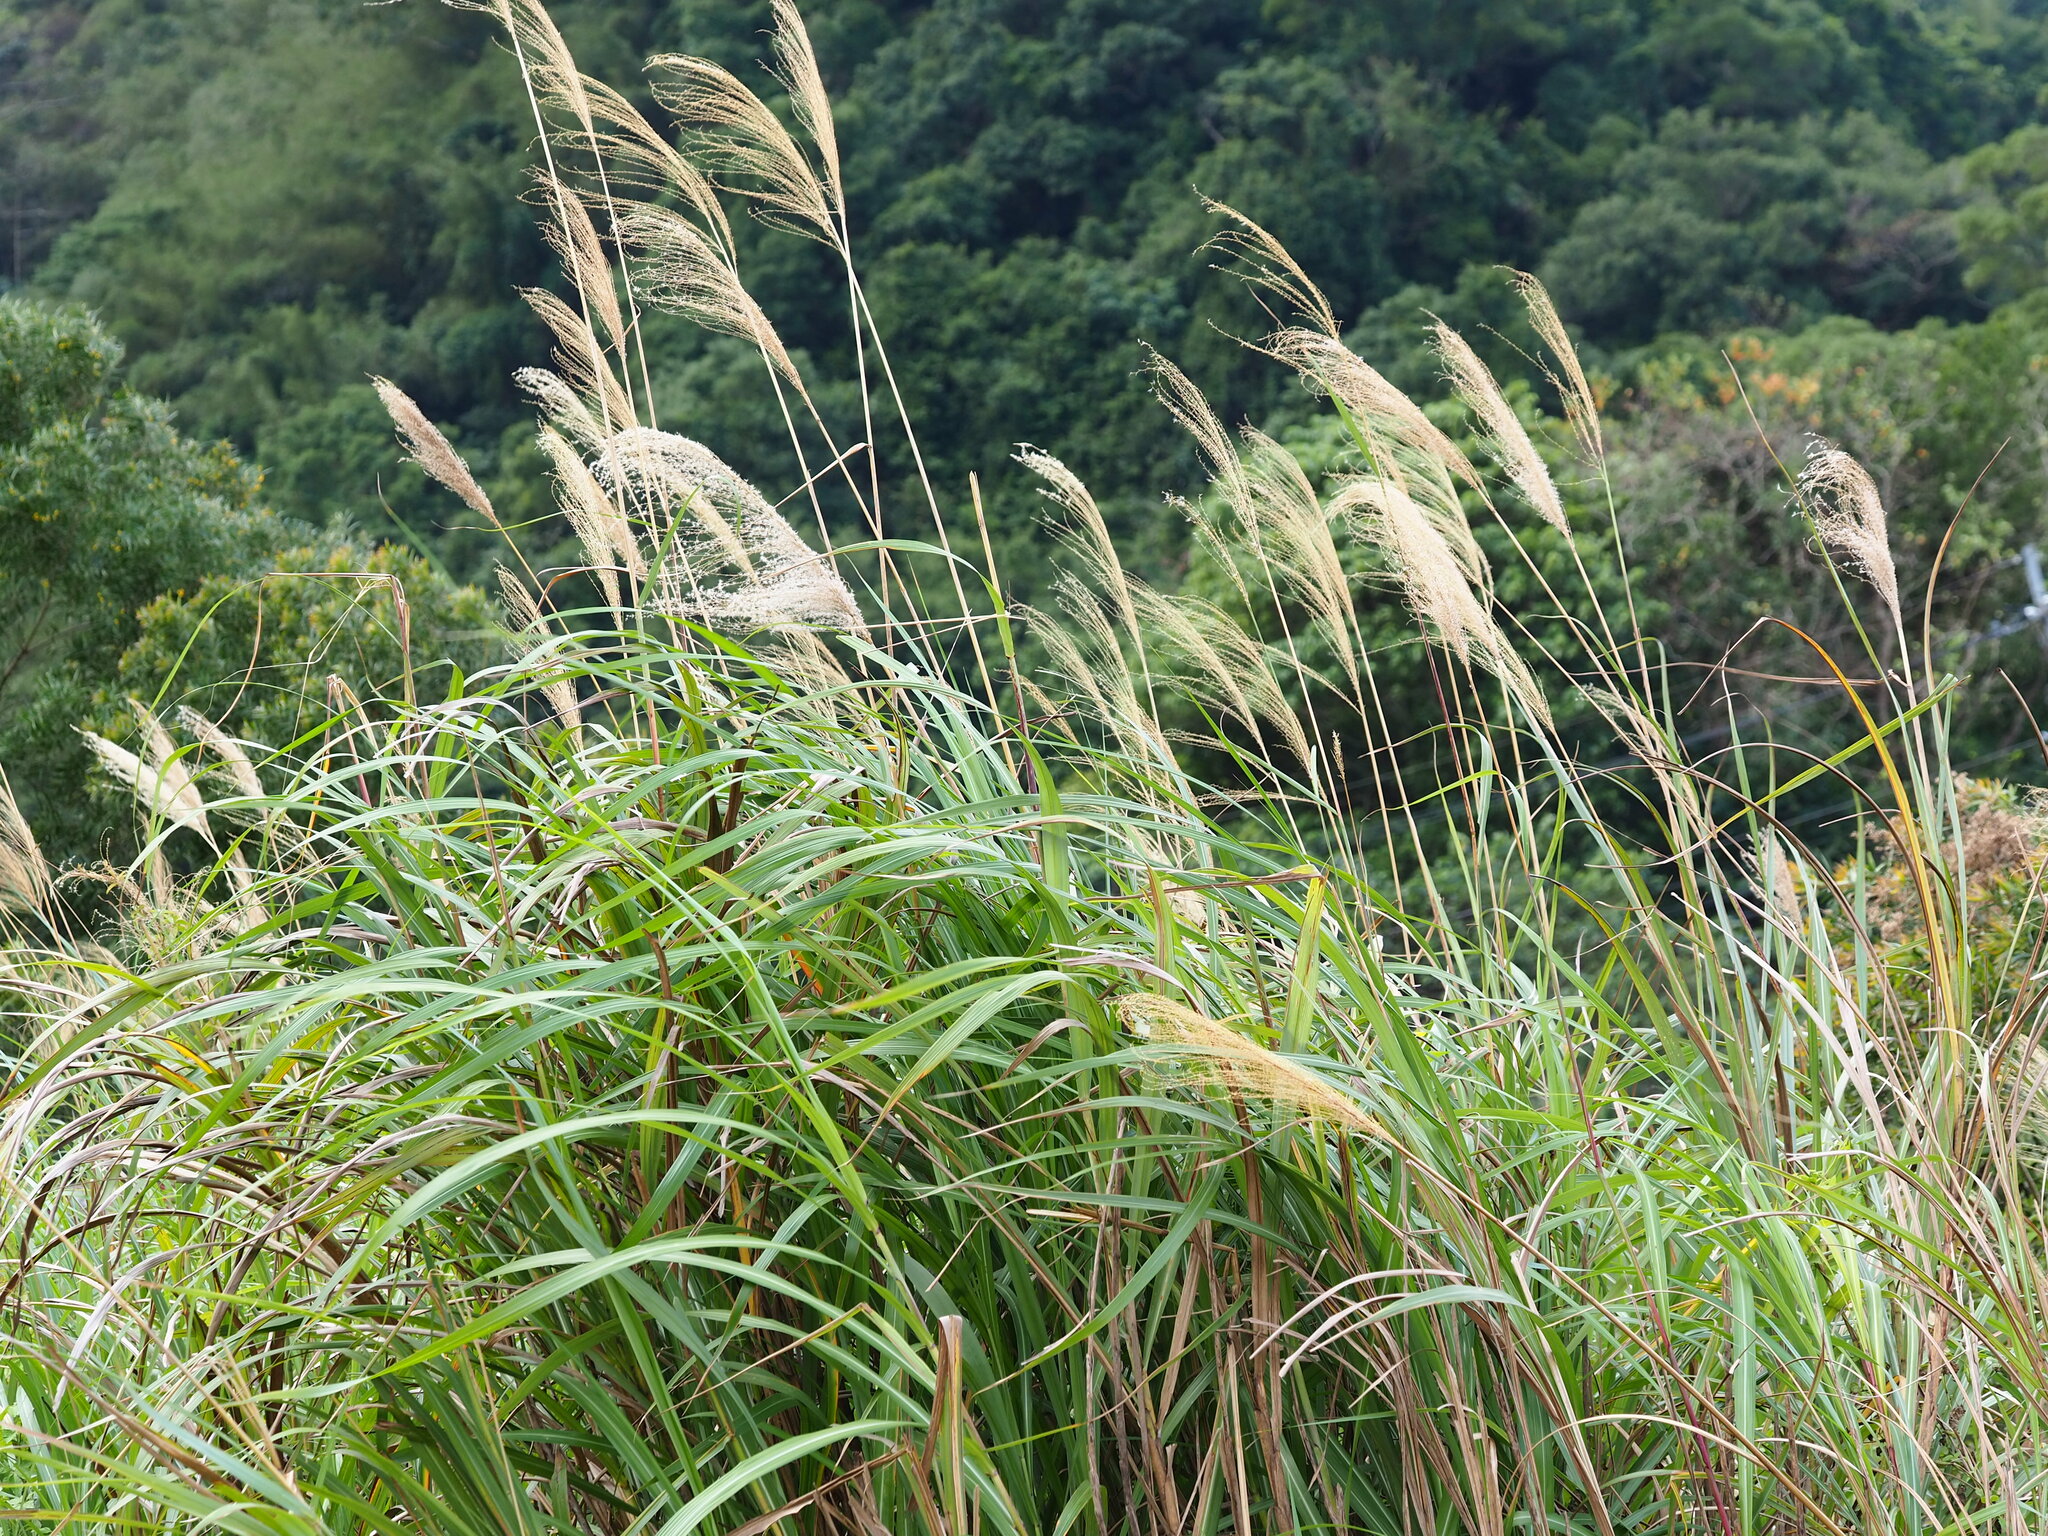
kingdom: Plantae
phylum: Tracheophyta
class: Liliopsida
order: Poales
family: Poaceae
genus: Miscanthus
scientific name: Miscanthus sinensis
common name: Chinese silvergrass
